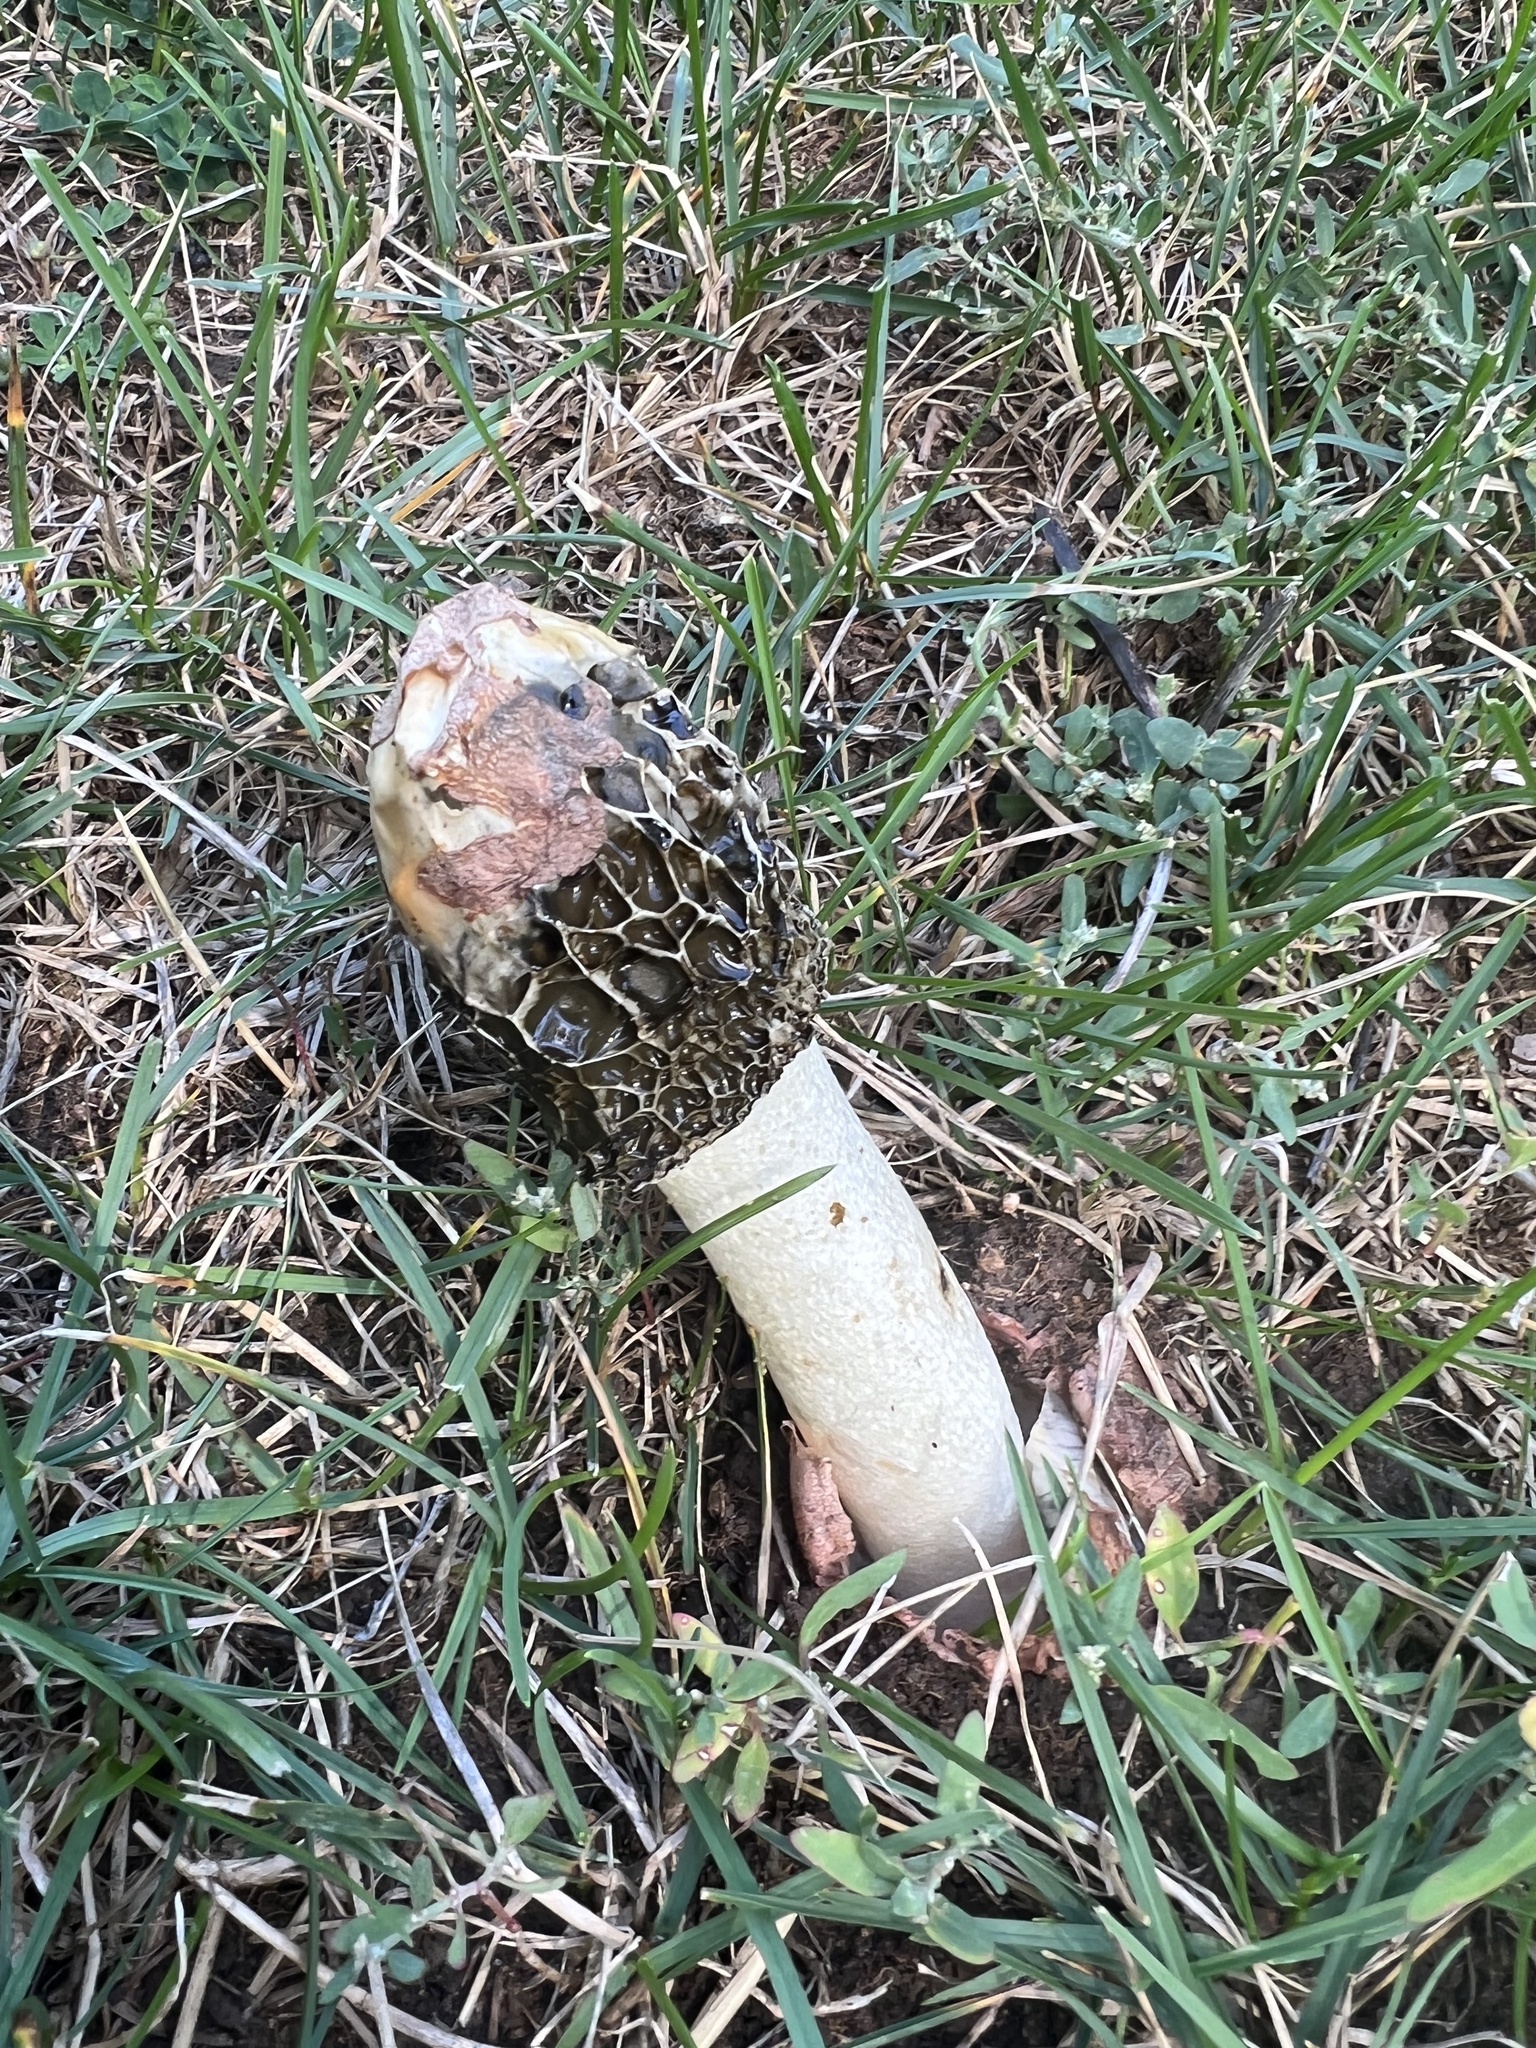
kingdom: Fungi
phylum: Basidiomycota
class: Agaricomycetes
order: Phallales
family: Phallaceae
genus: Phallus
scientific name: Phallus hadriani
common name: Sand stinkhorn
